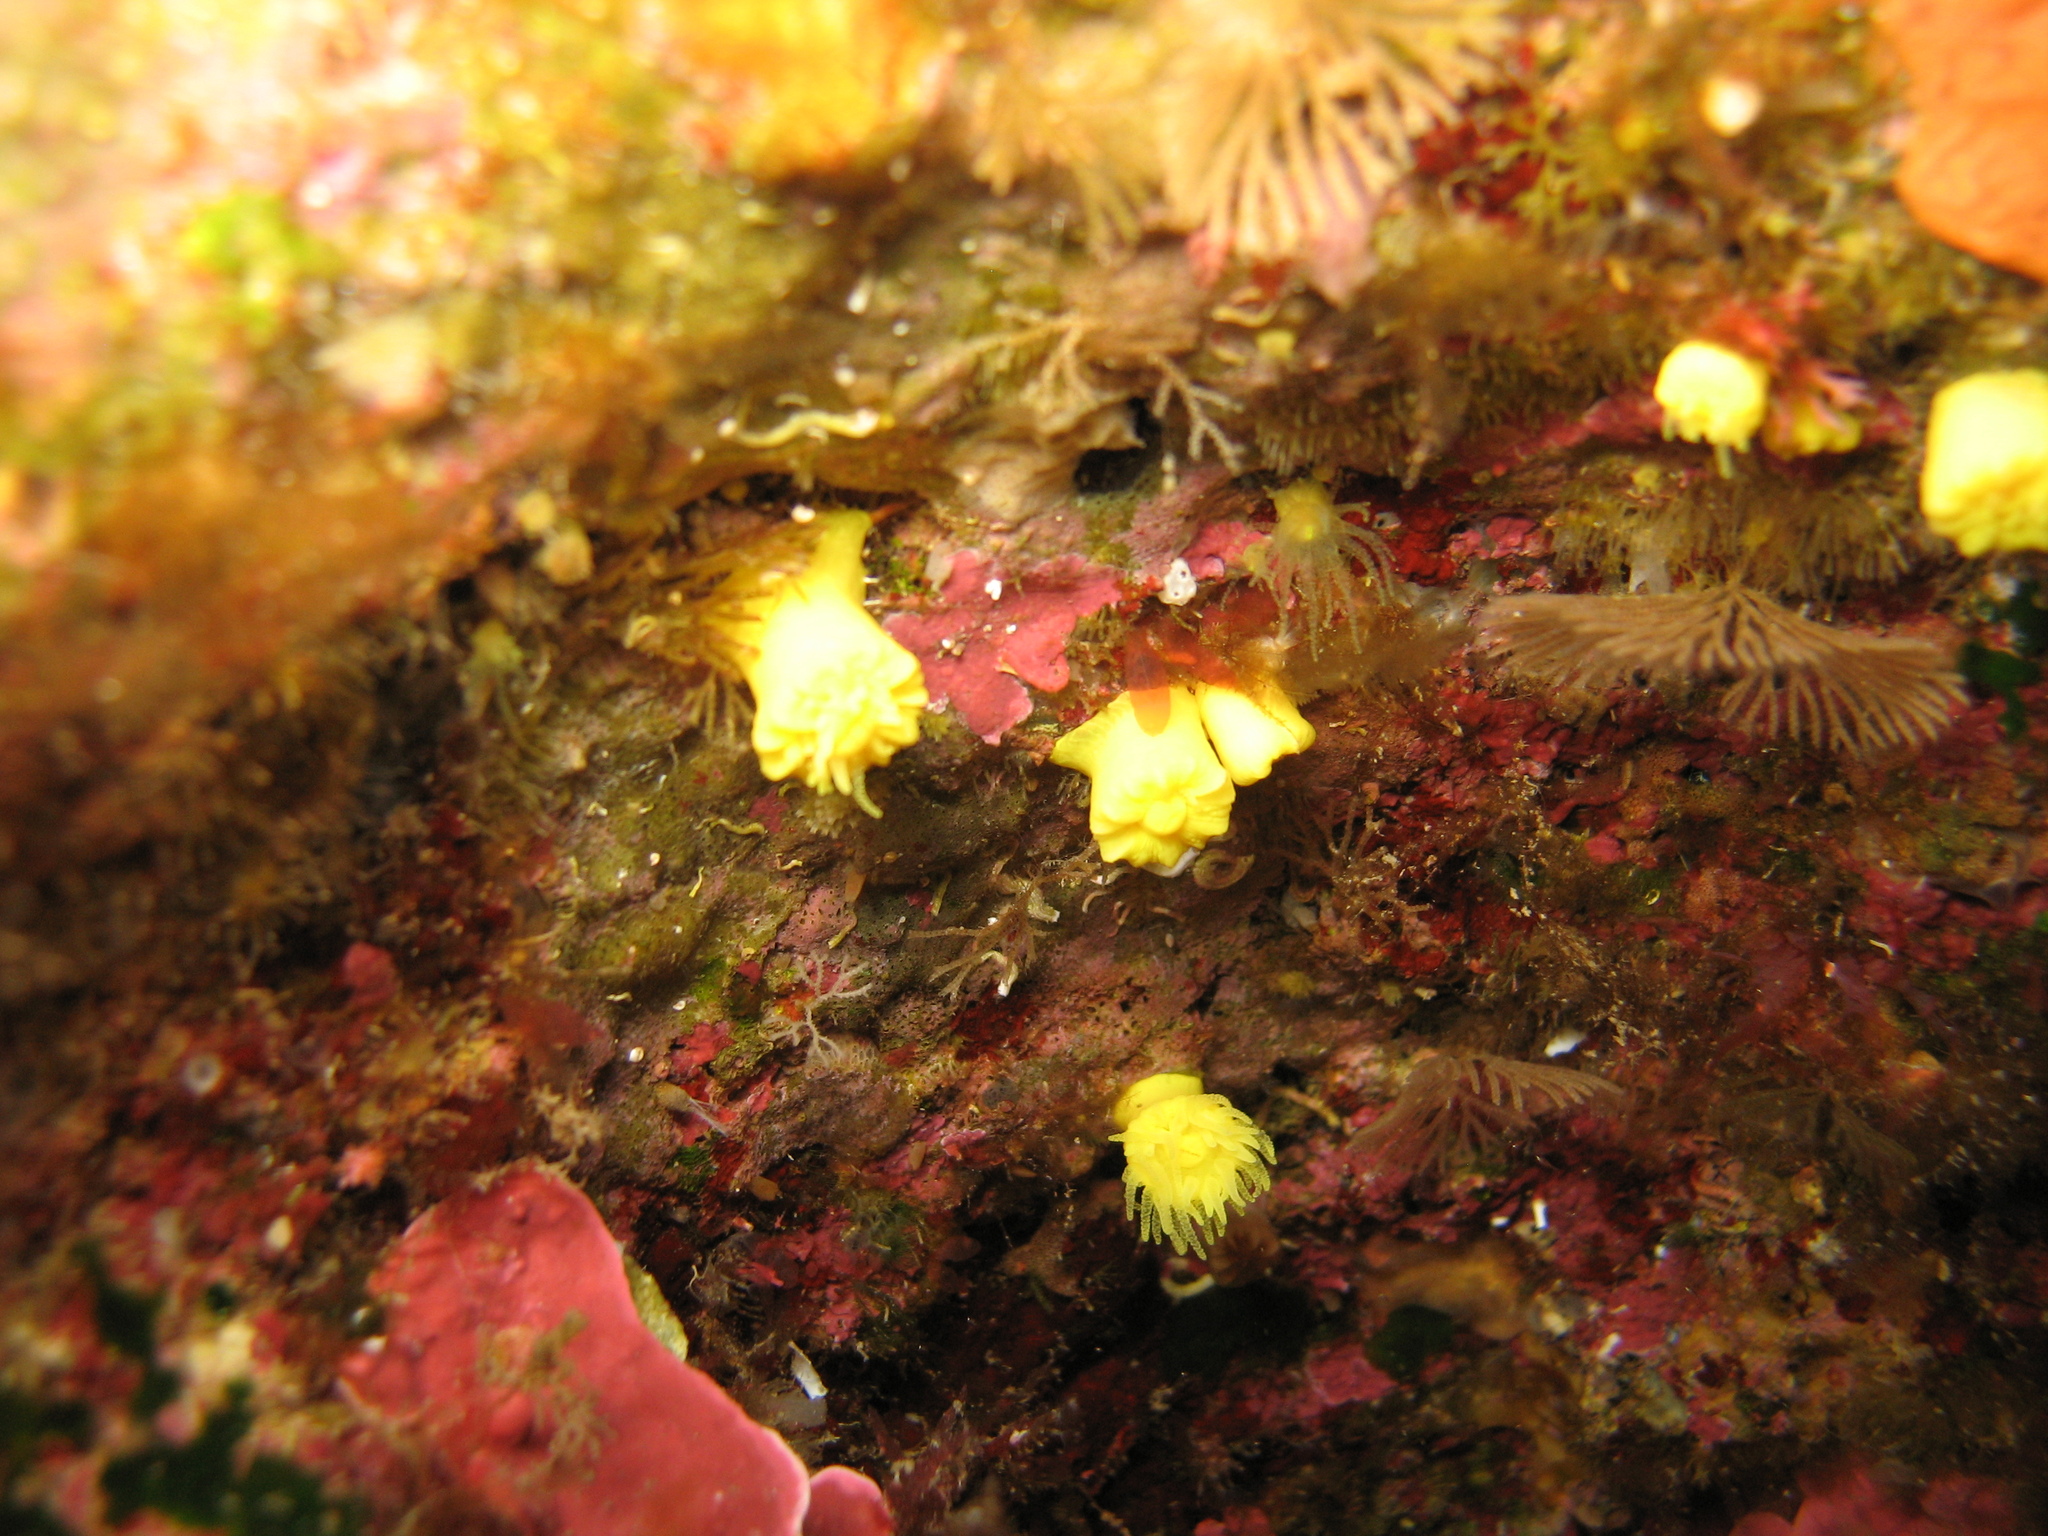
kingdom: Animalia
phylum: Cnidaria
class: Anthozoa
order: Scleractinia
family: Dendrophylliidae
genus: Leptopsammia
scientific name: Leptopsammia pruvoti
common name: Sunset cup coral
